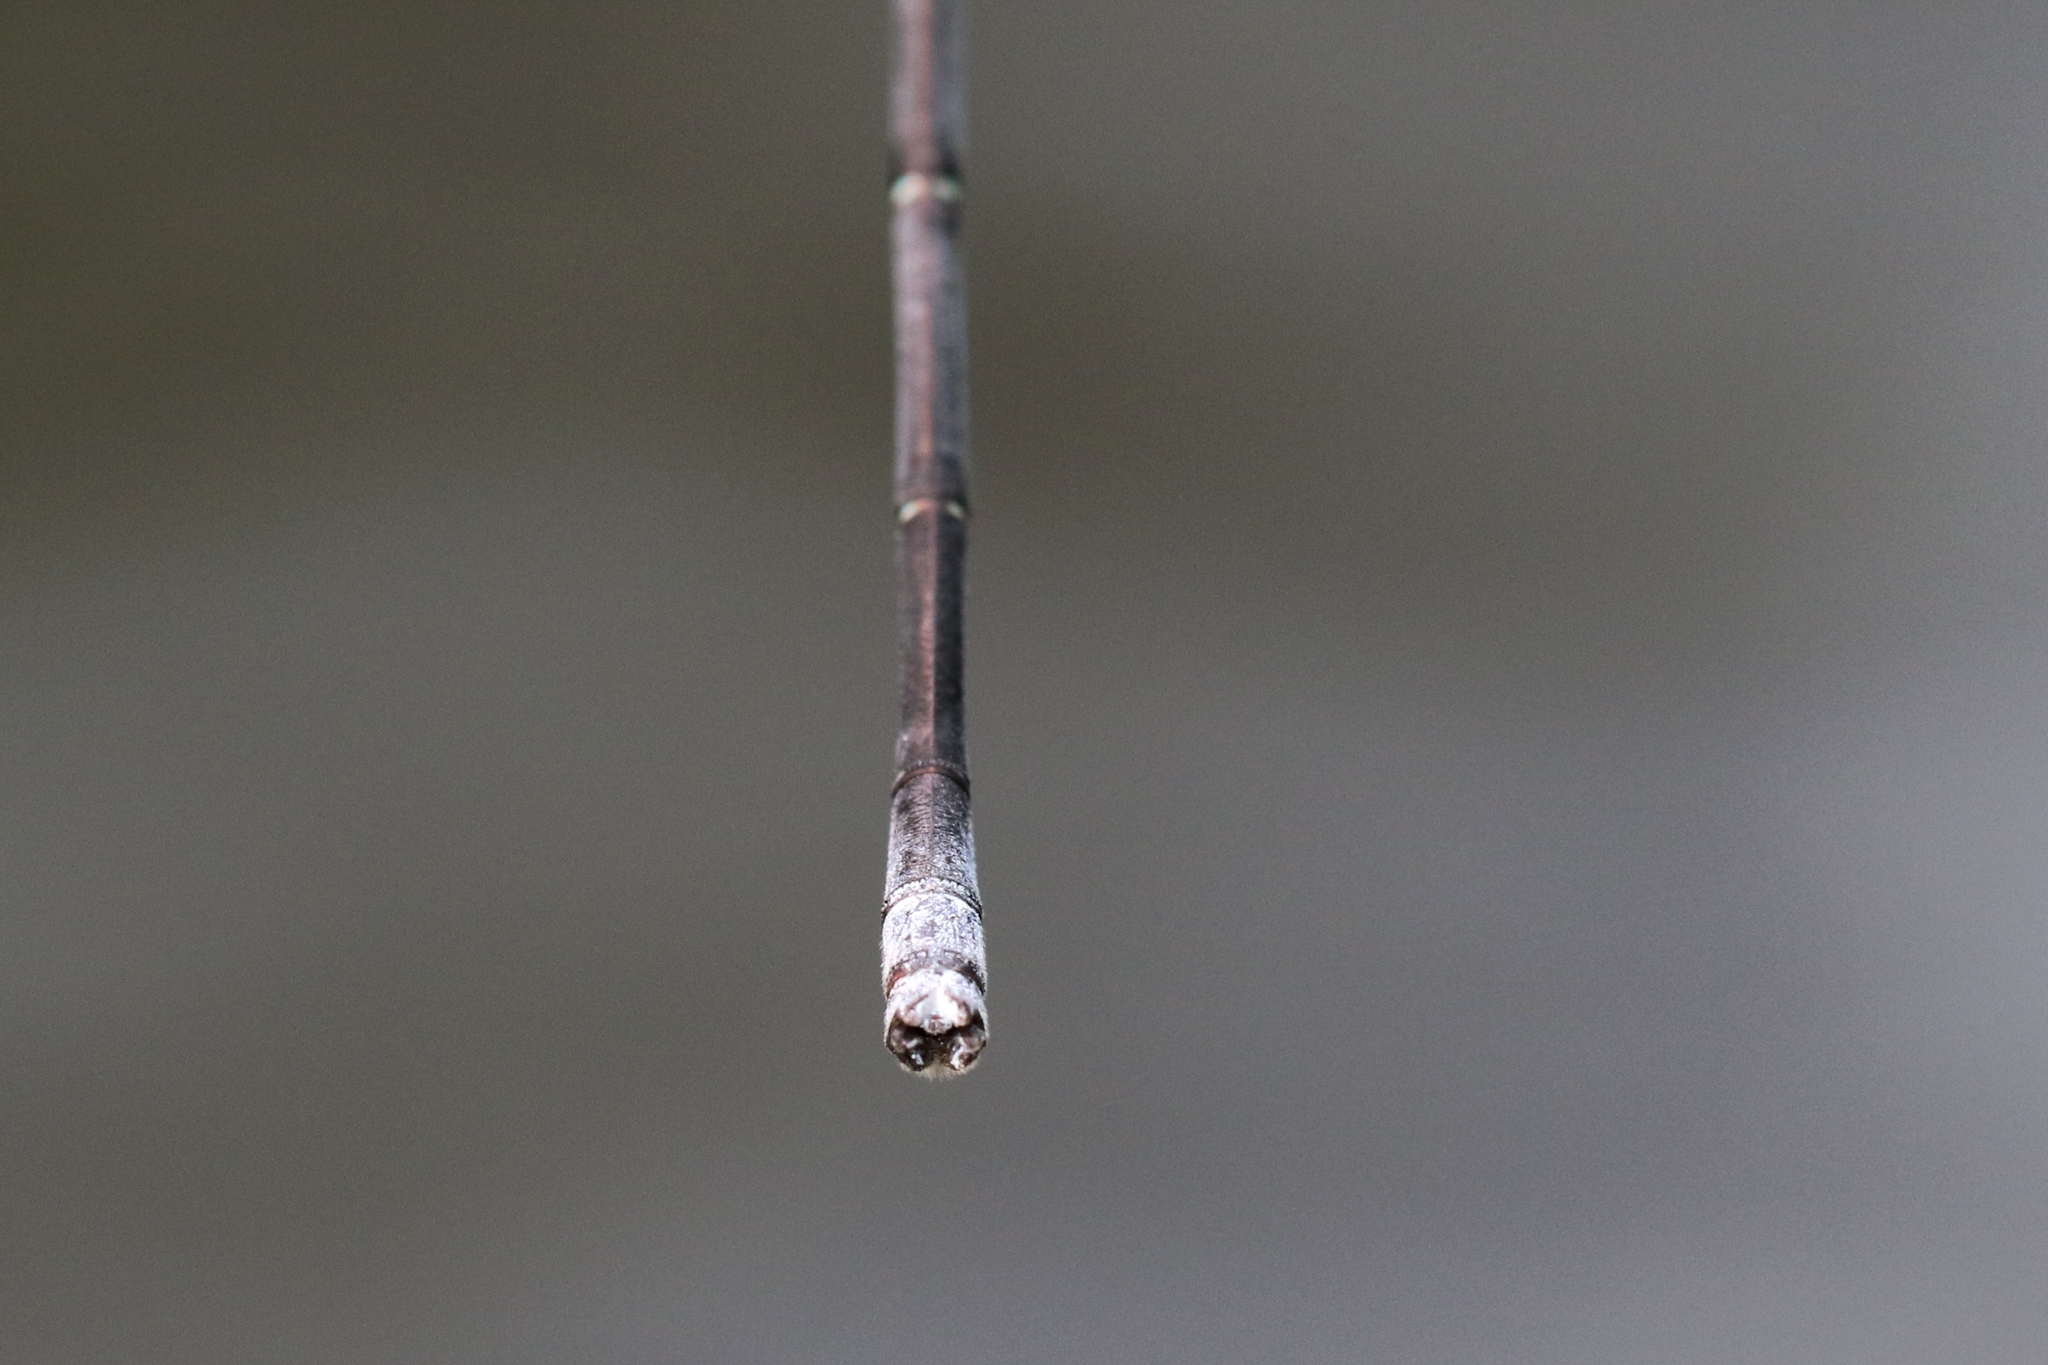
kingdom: Animalia
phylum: Arthropoda
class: Insecta
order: Odonata
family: Coenagrionidae
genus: Argia
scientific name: Argia moesta
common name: Powdered dancer
